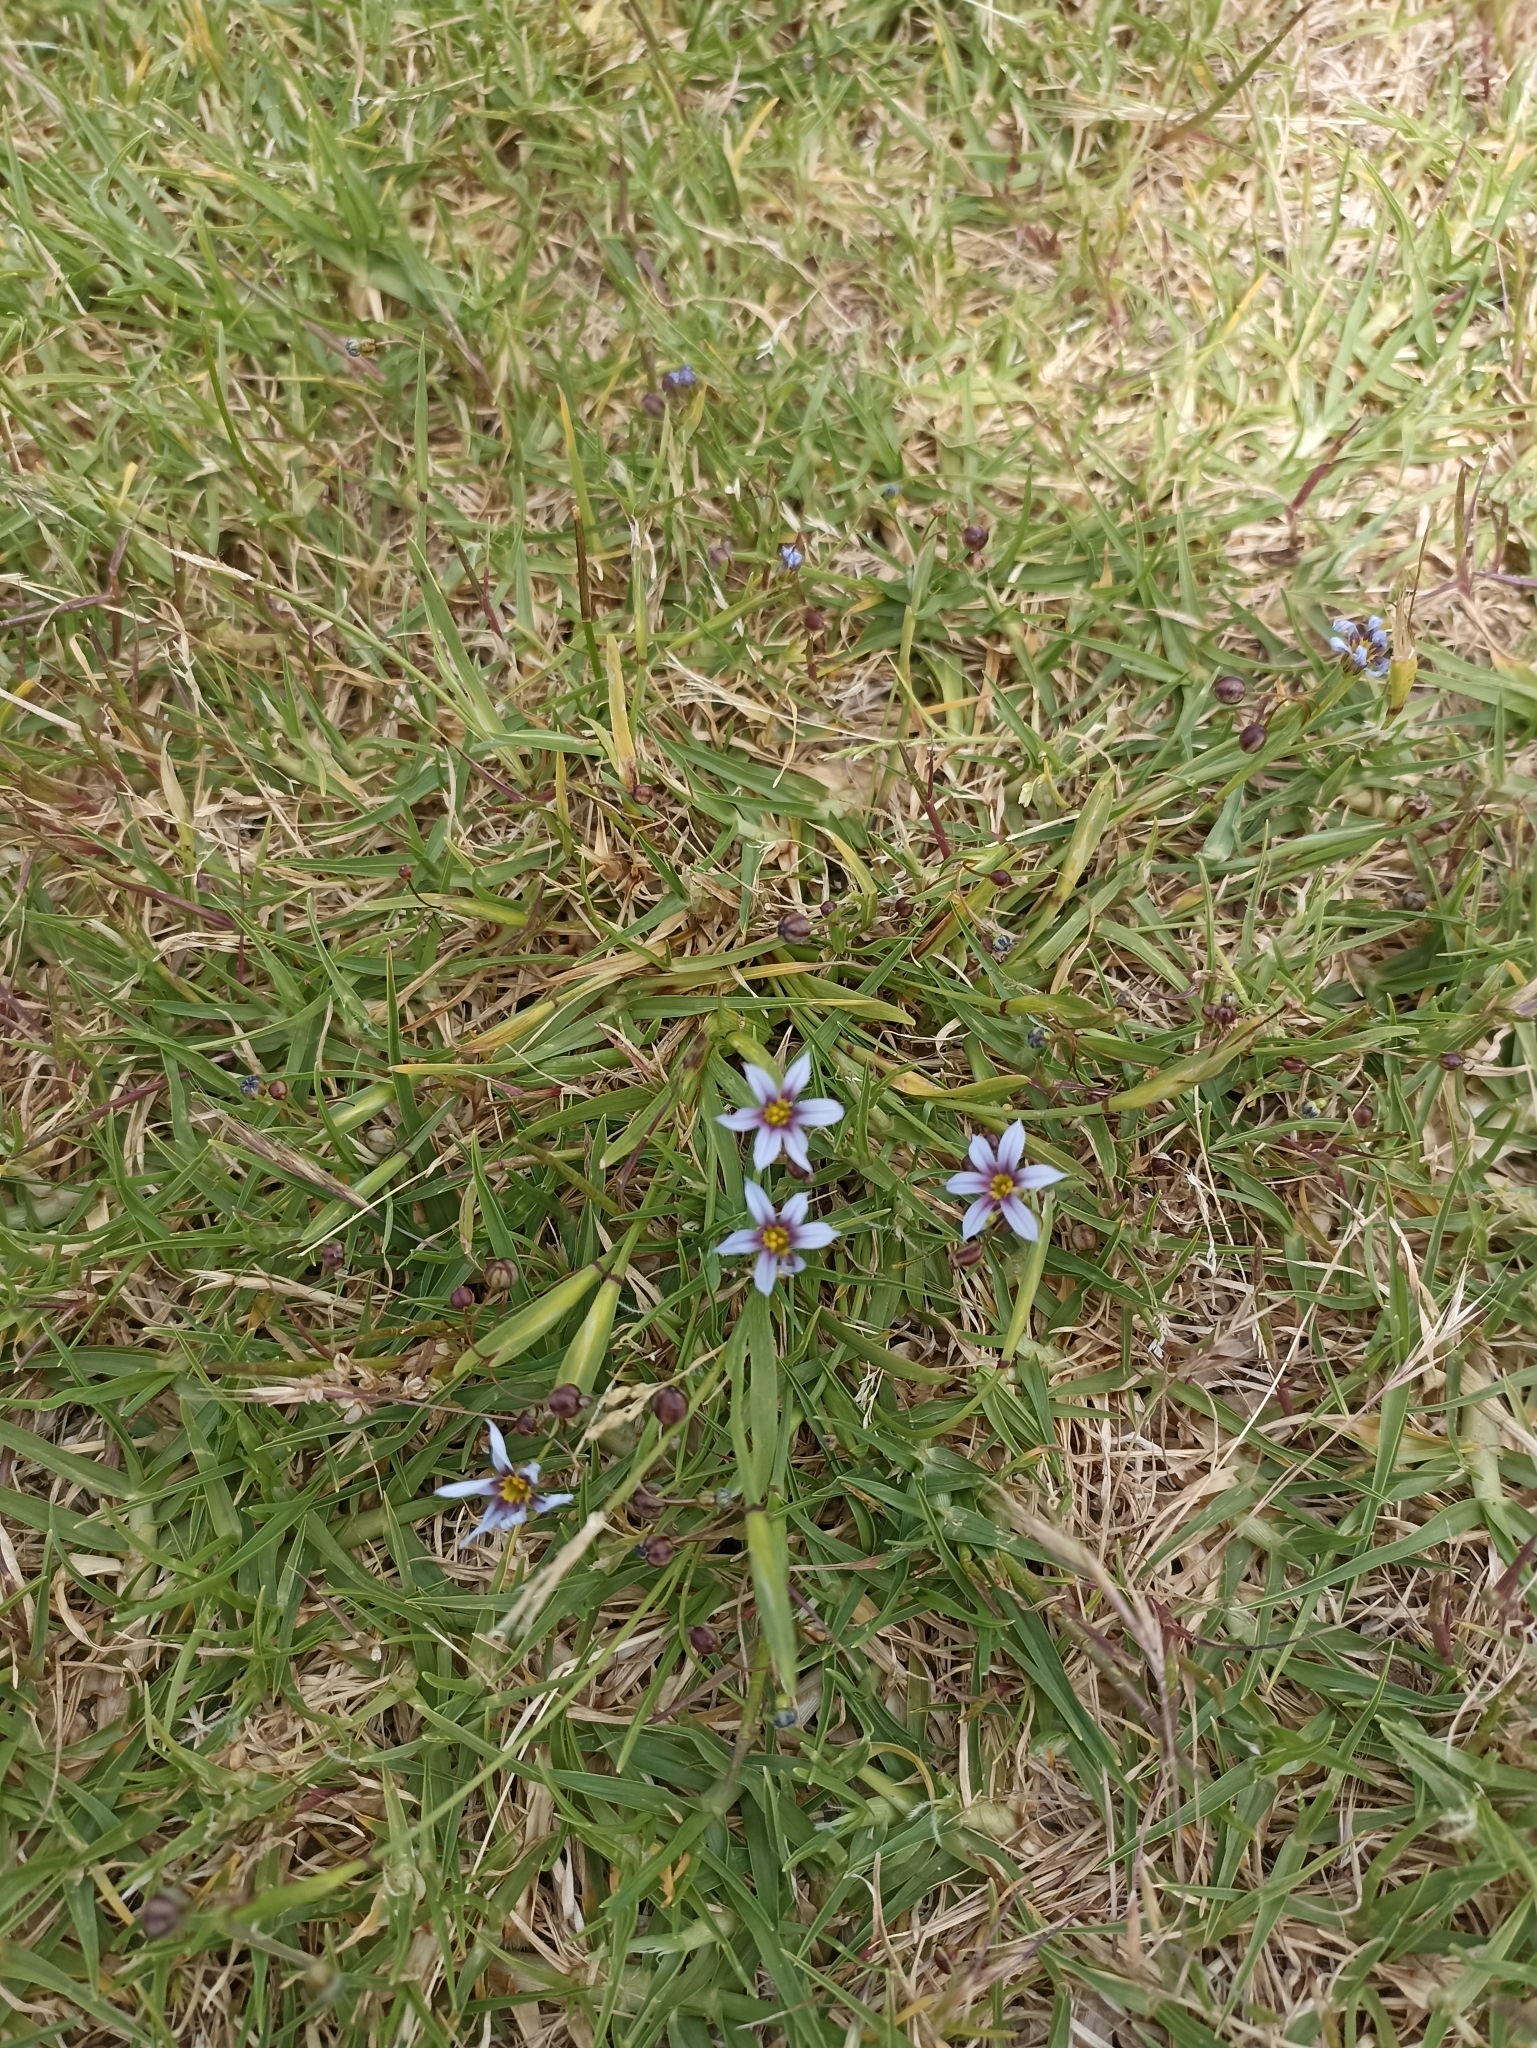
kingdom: Plantae
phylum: Tracheophyta
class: Liliopsida
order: Asparagales
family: Iridaceae
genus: Sisyrinchium
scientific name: Sisyrinchium micranthum
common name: Bermuda pigroot
